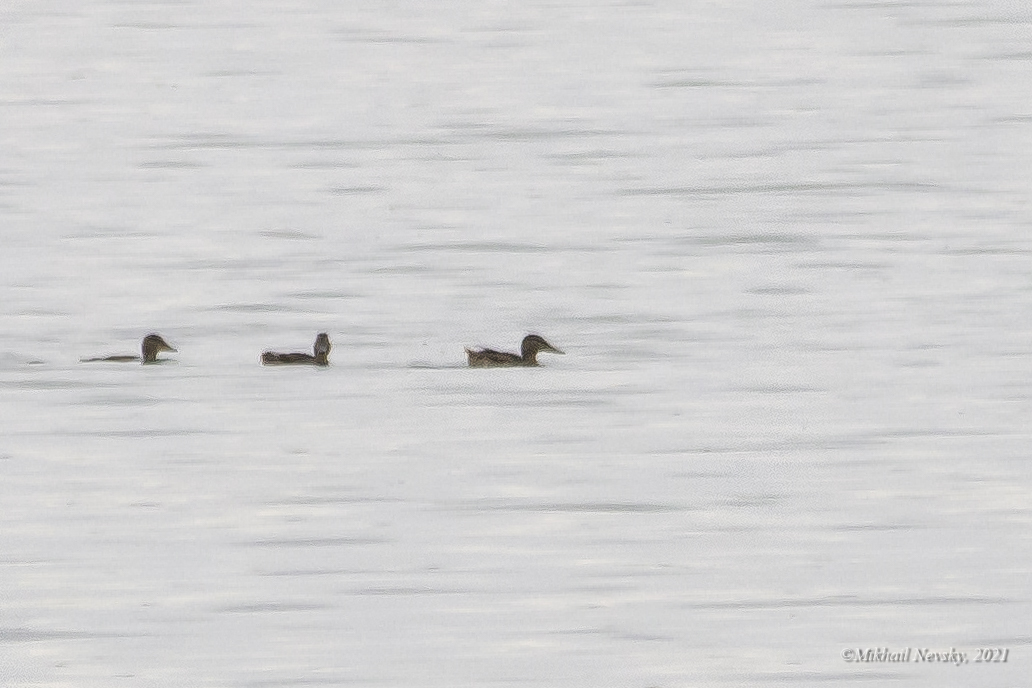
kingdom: Animalia
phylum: Chordata
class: Aves
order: Anseriformes
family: Anatidae
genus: Spatula
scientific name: Spatula clypeata
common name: Northern shoveler
